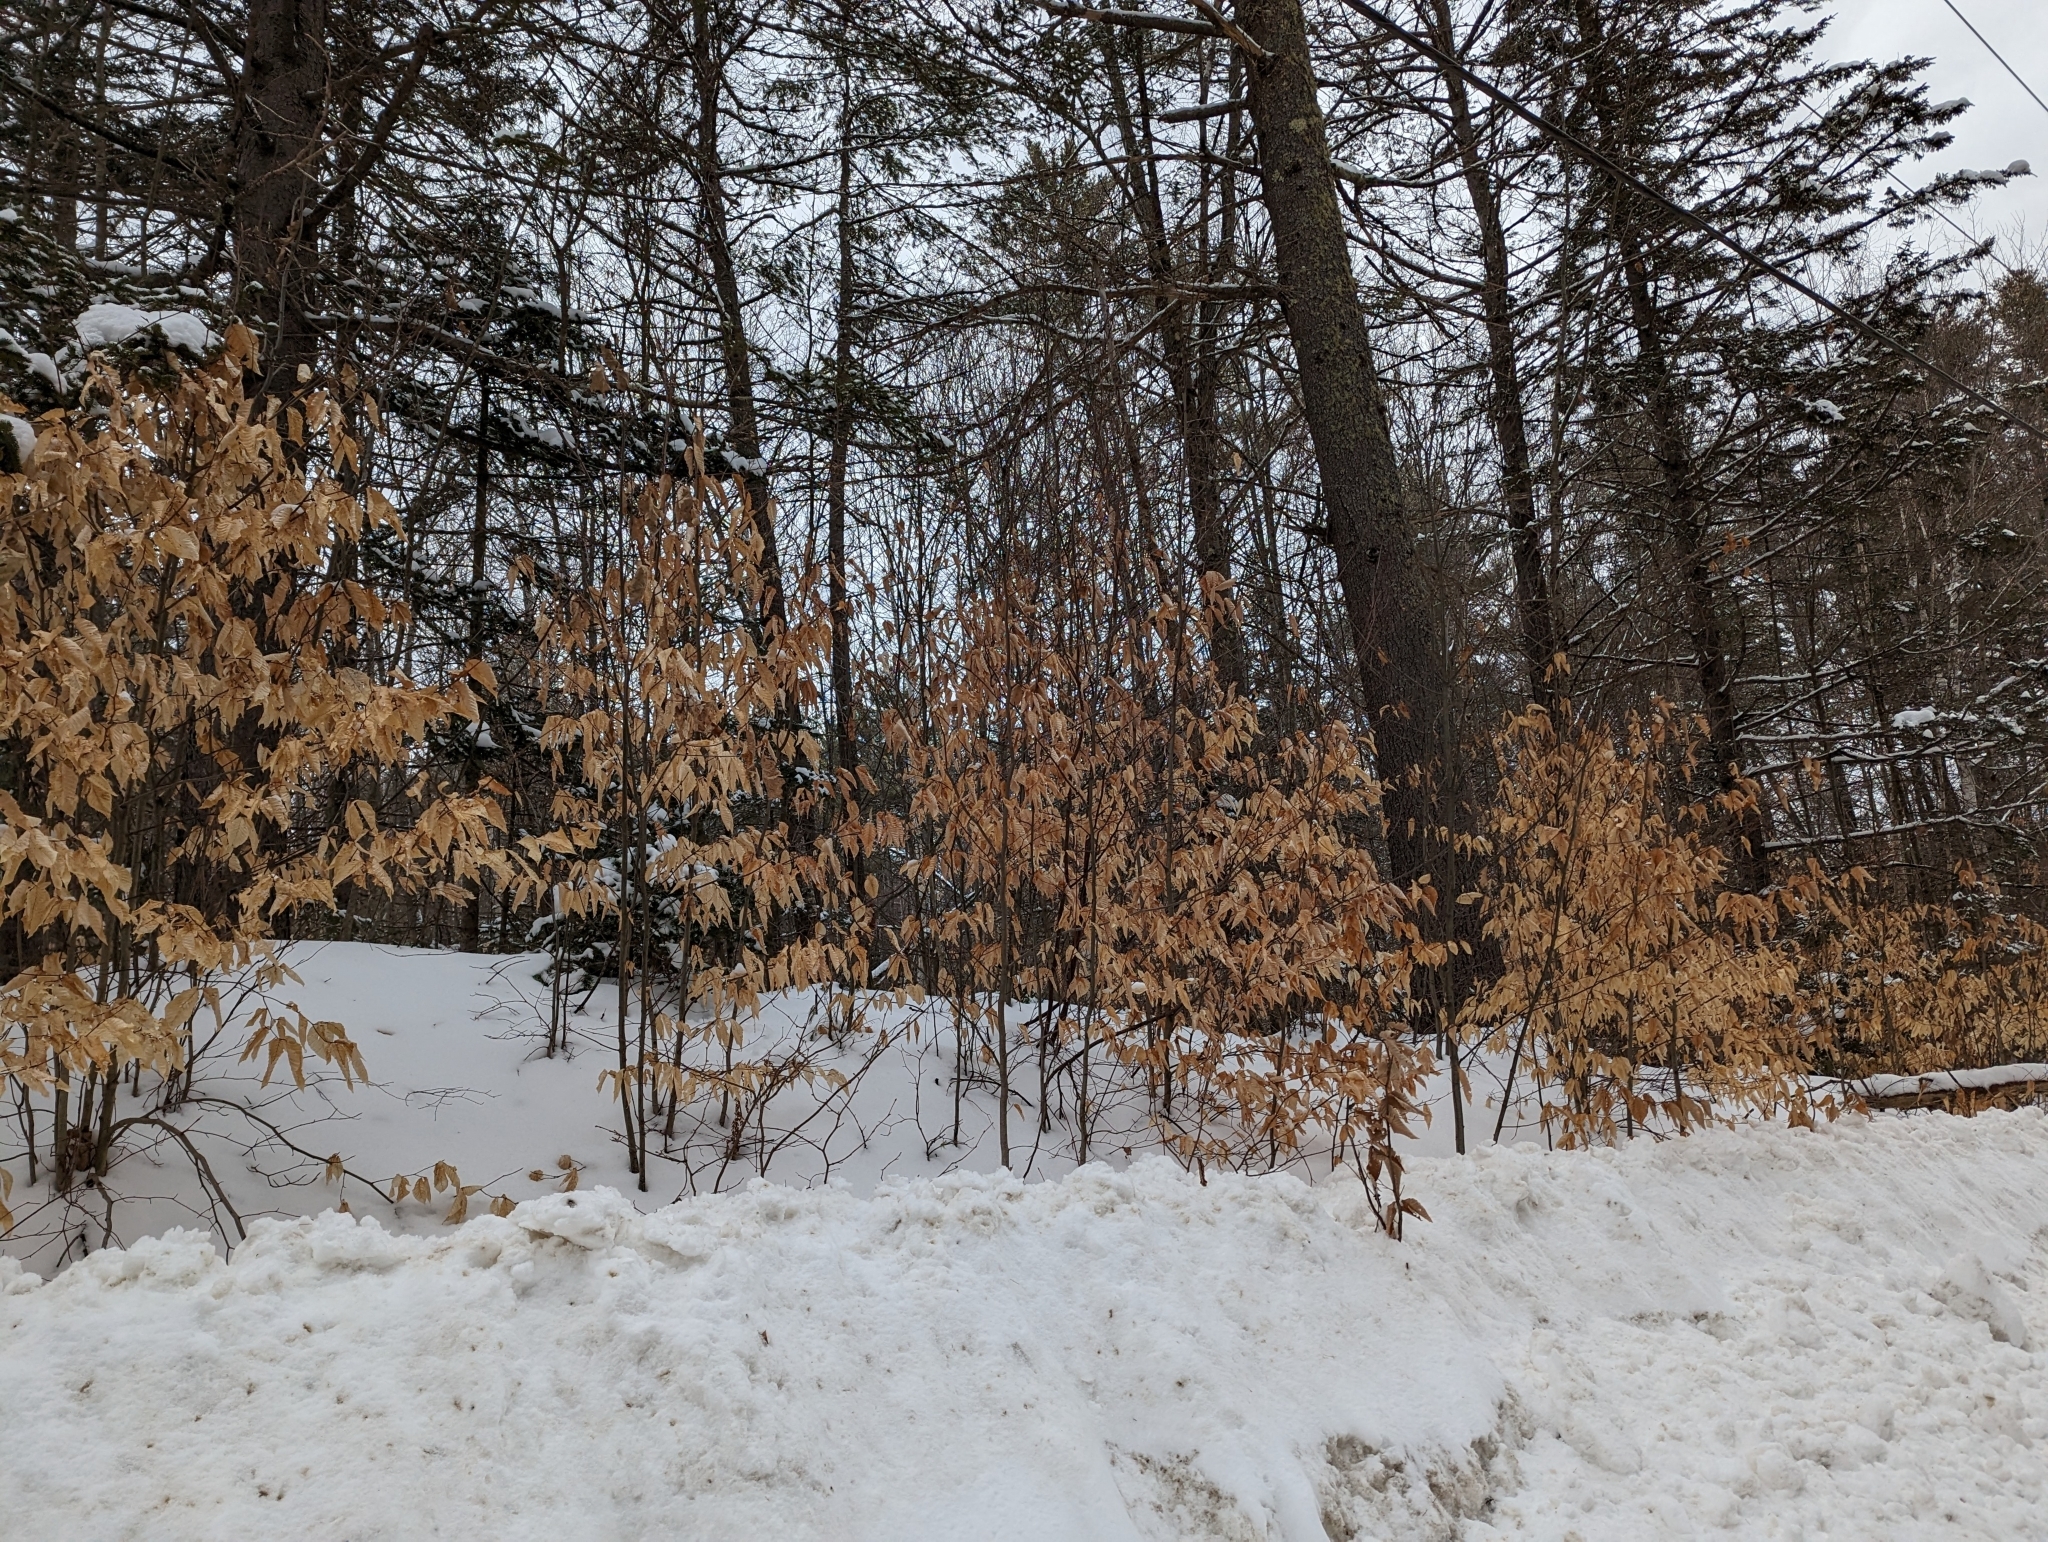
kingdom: Plantae
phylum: Tracheophyta
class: Magnoliopsida
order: Fagales
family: Fagaceae
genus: Fagus
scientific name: Fagus grandifolia
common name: American beech
